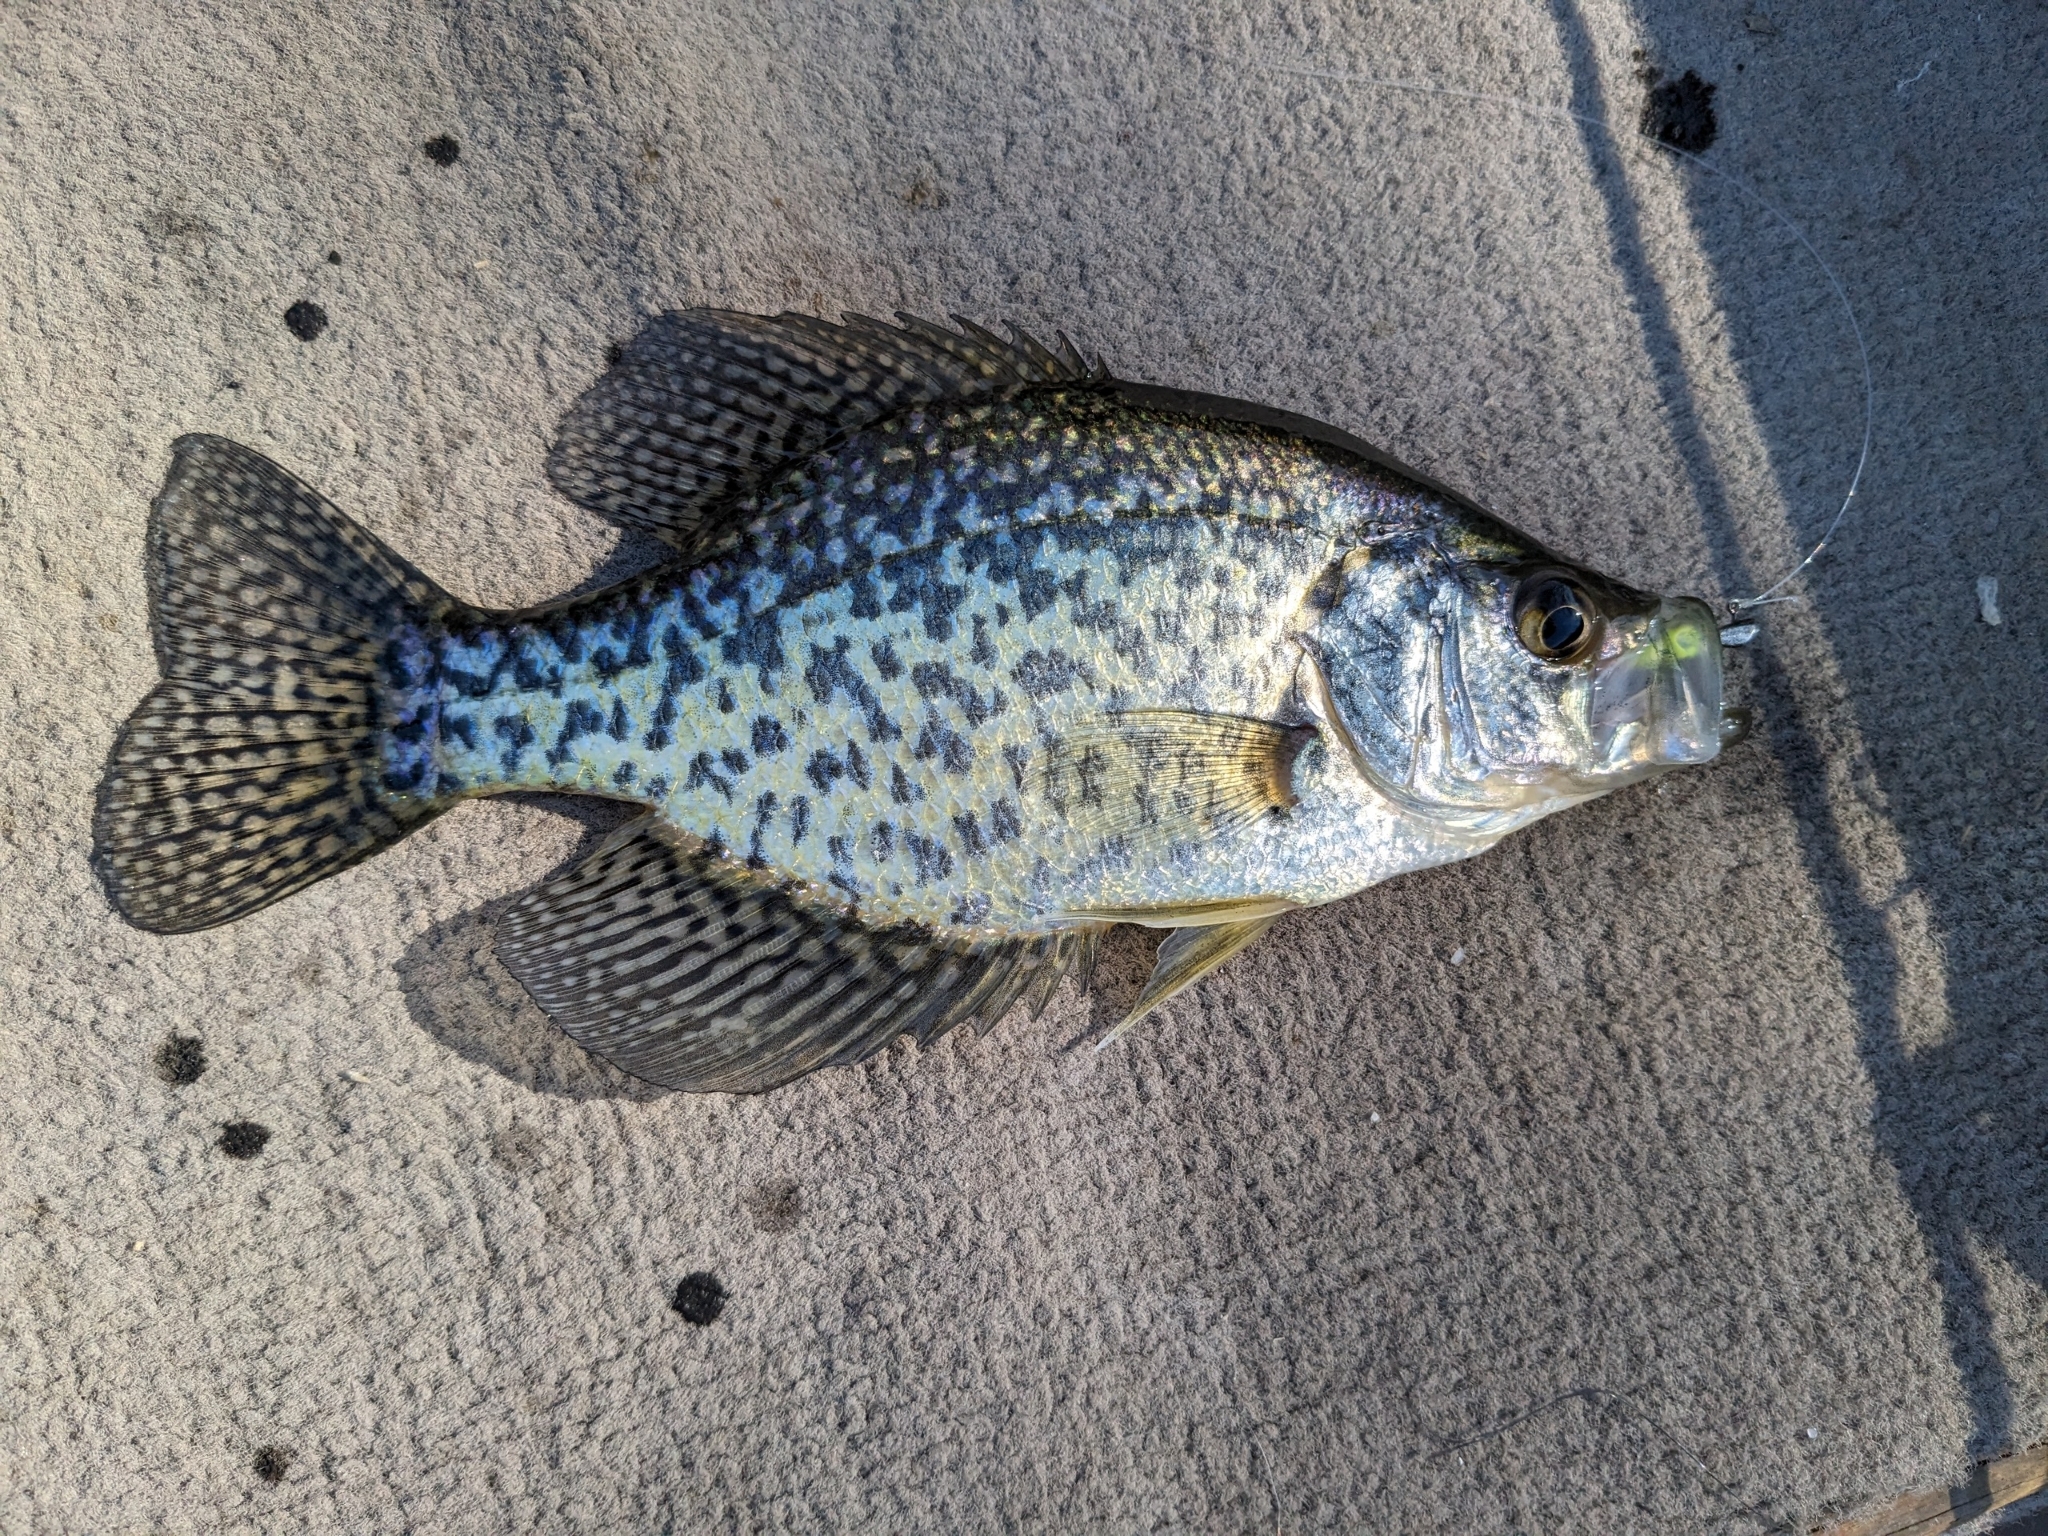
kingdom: Animalia
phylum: Chordata
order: Perciformes
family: Centrarchidae
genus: Pomoxis
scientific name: Pomoxis nigromaculatus
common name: Black crappie
